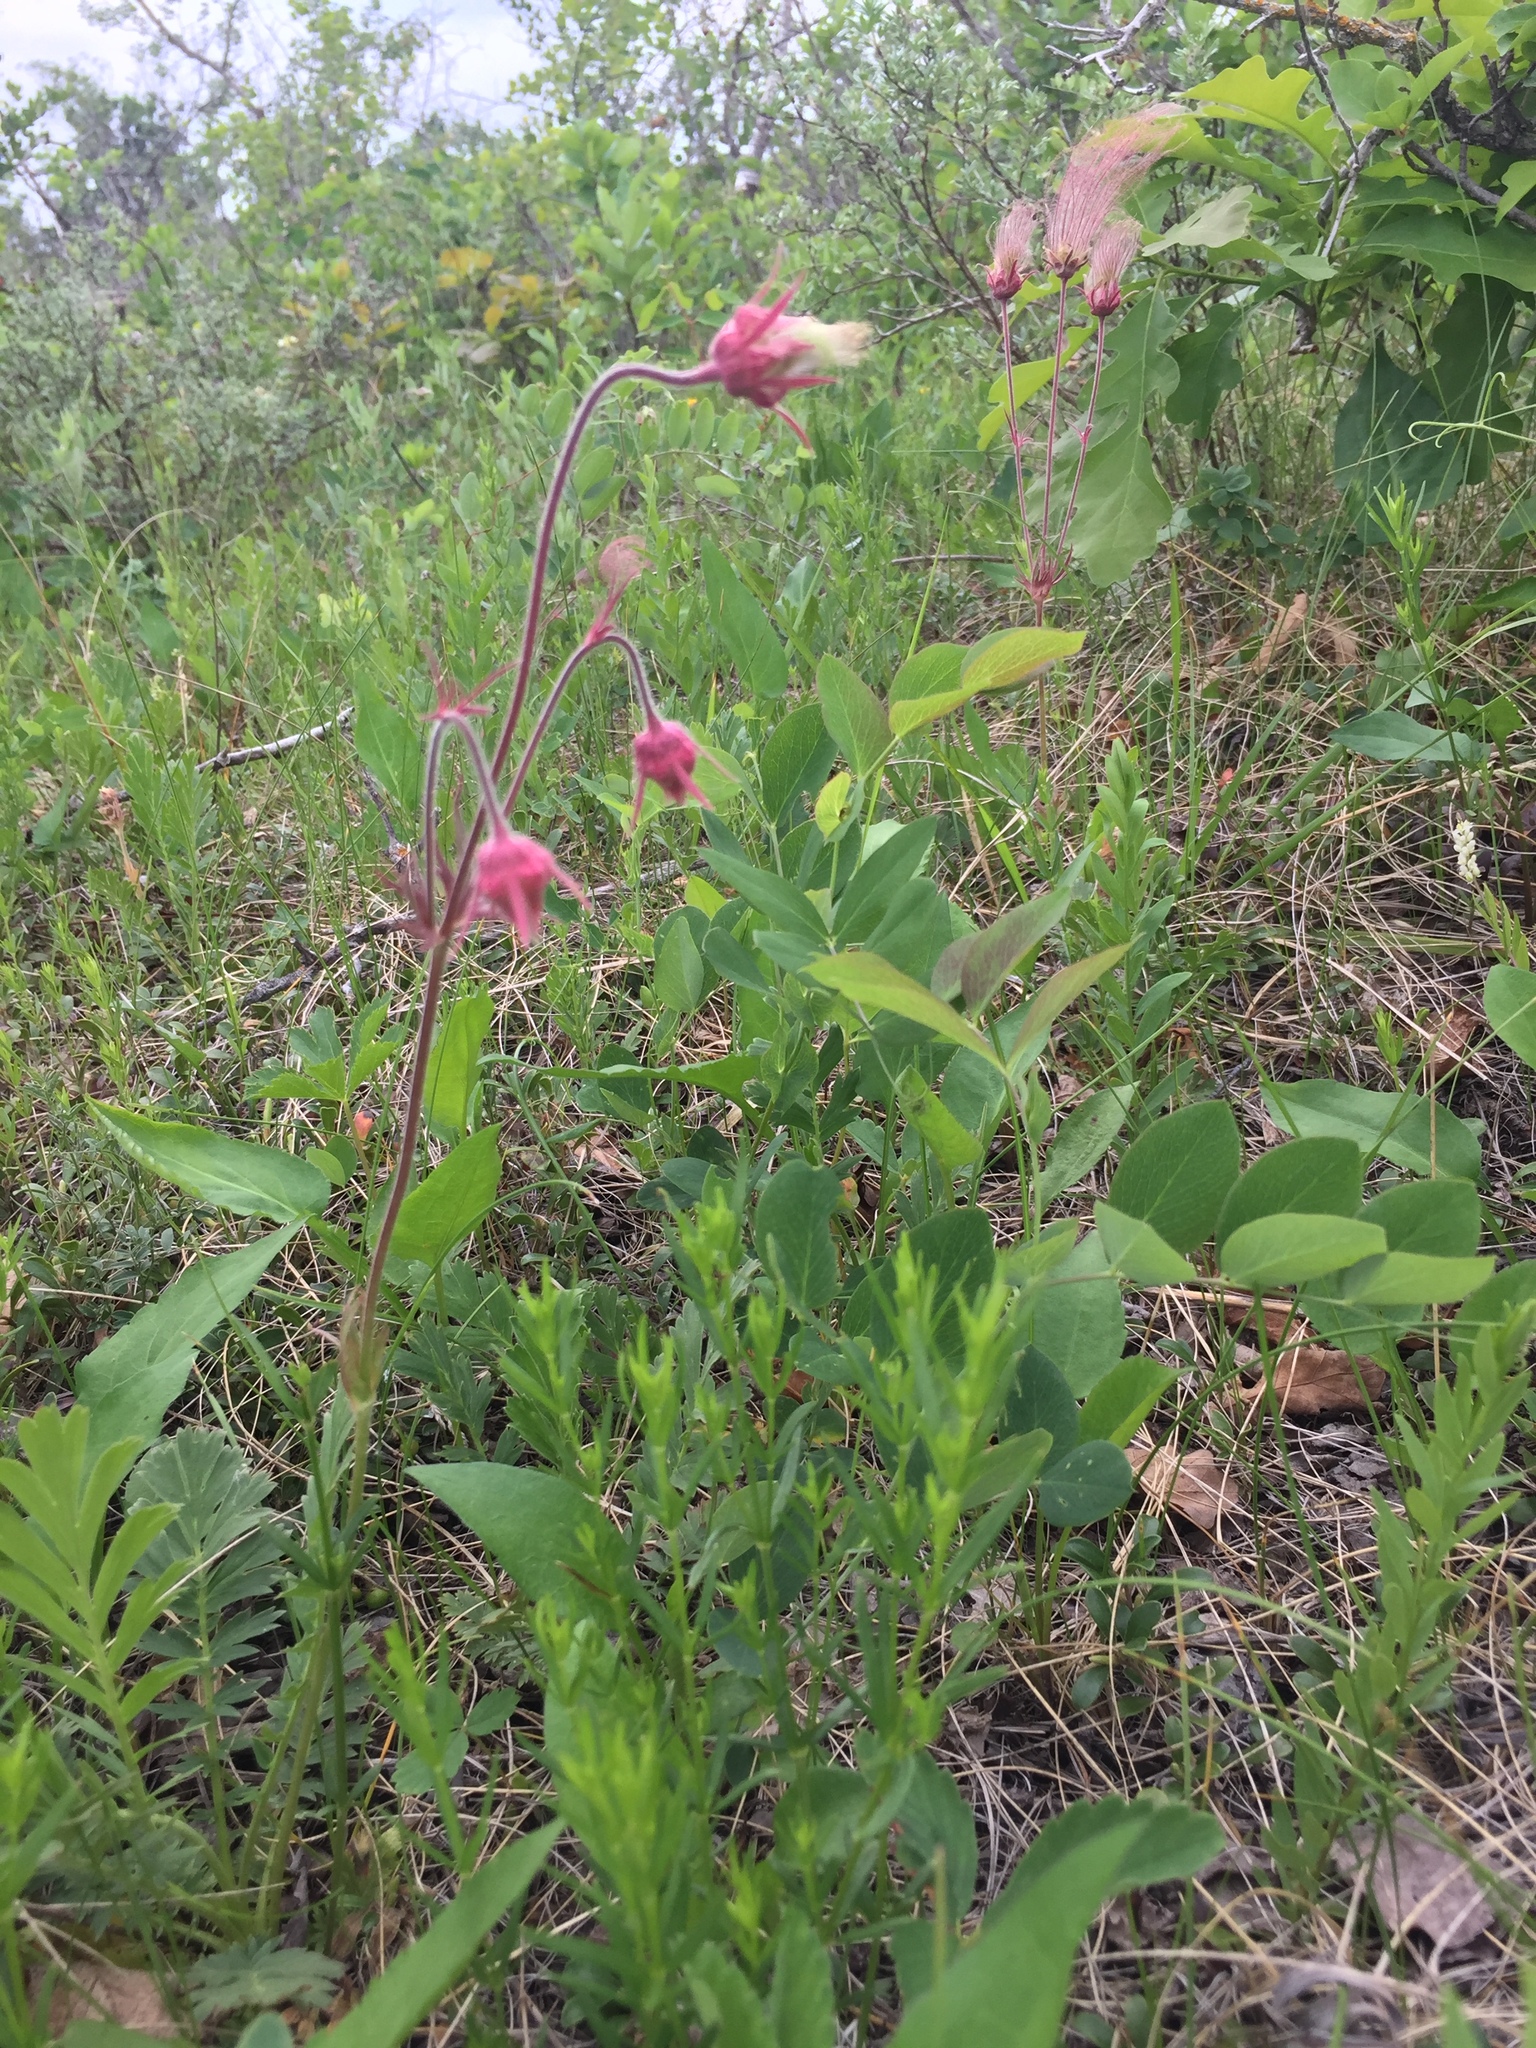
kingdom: Plantae
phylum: Tracheophyta
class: Magnoliopsida
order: Rosales
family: Rosaceae
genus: Geum
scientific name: Geum triflorum
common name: Old man's whiskers
